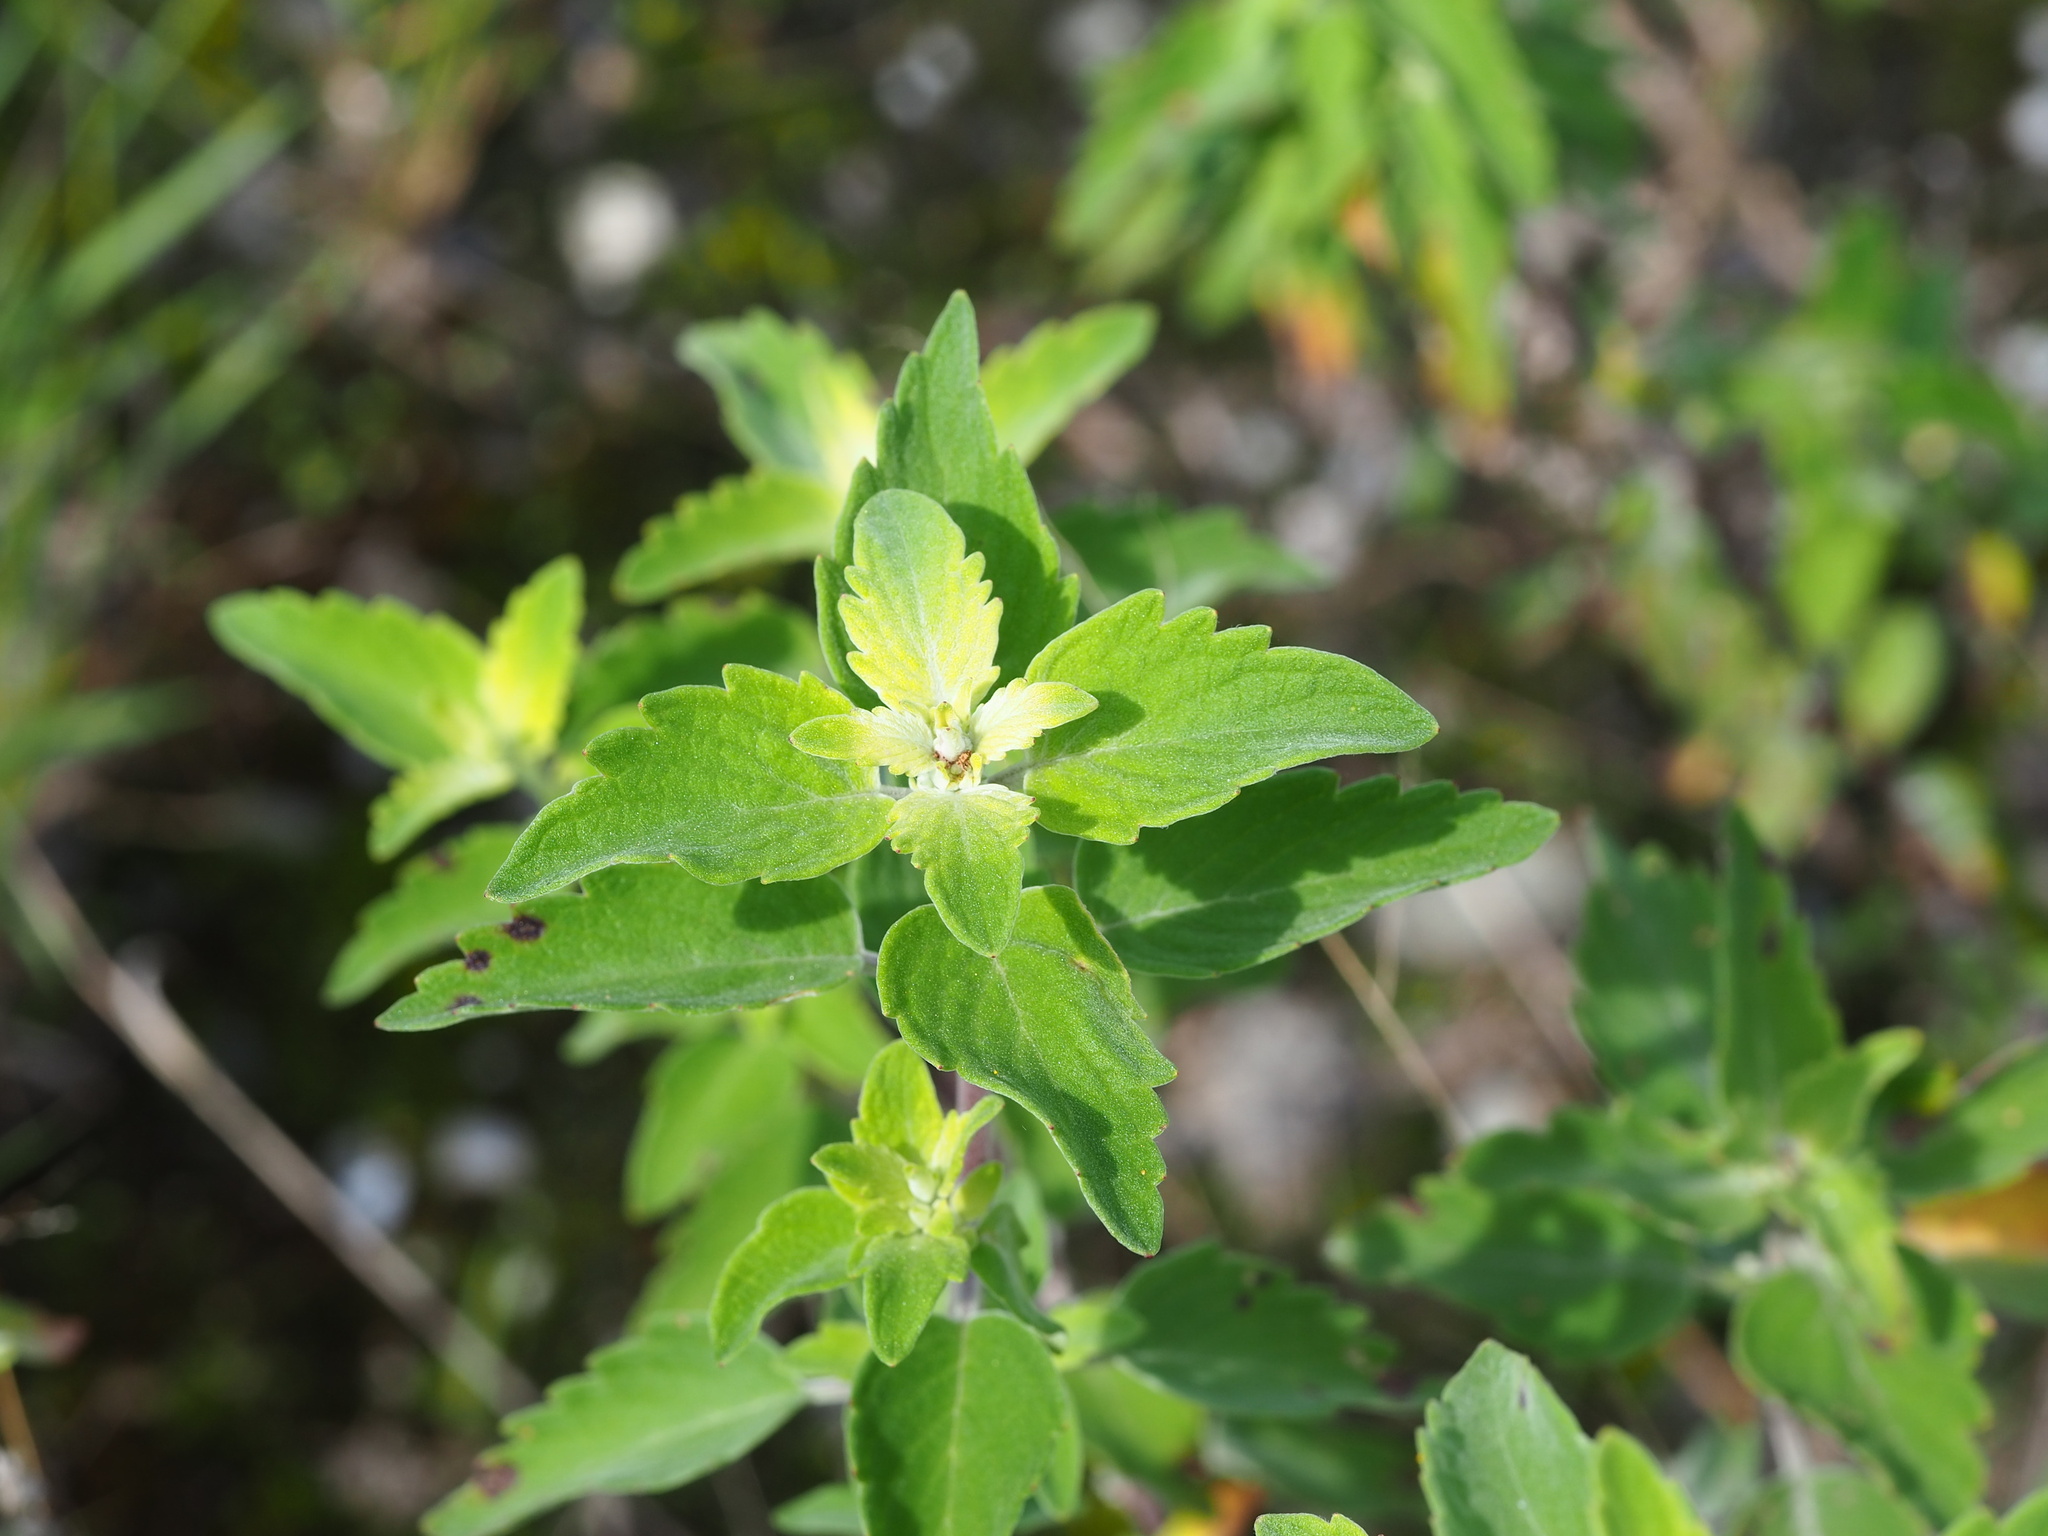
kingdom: Plantae
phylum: Tracheophyta
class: Magnoliopsida
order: Lamiales
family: Lamiaceae
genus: Caryopteris
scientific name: Caryopteris incana
